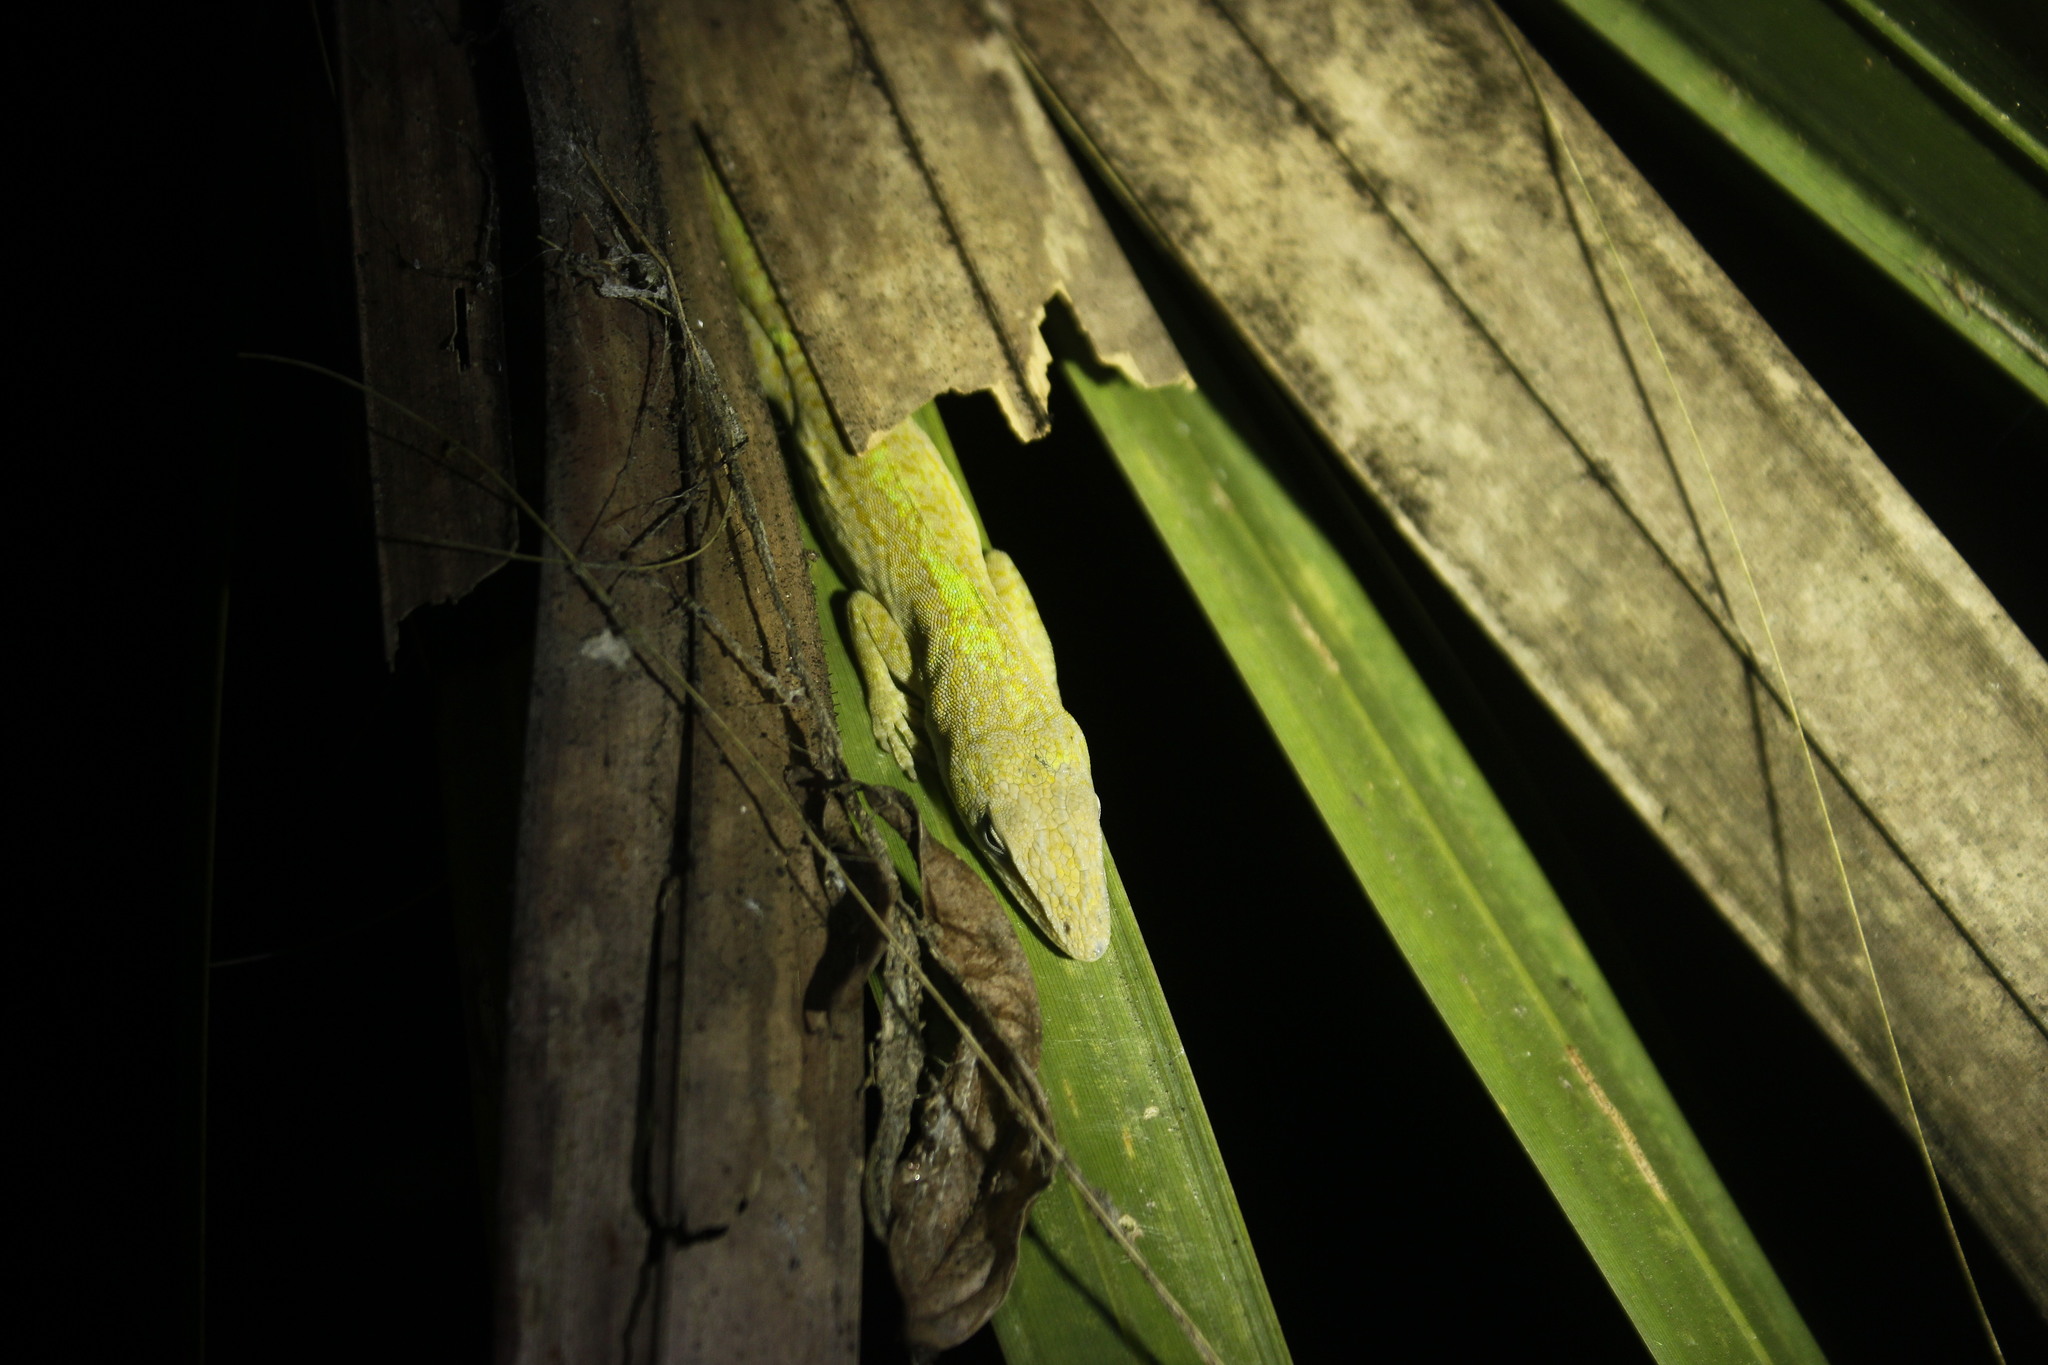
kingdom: Animalia
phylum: Chordata
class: Squamata
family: Dactyloidae
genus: Anolis
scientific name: Anolis carolinensis
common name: Green anole
